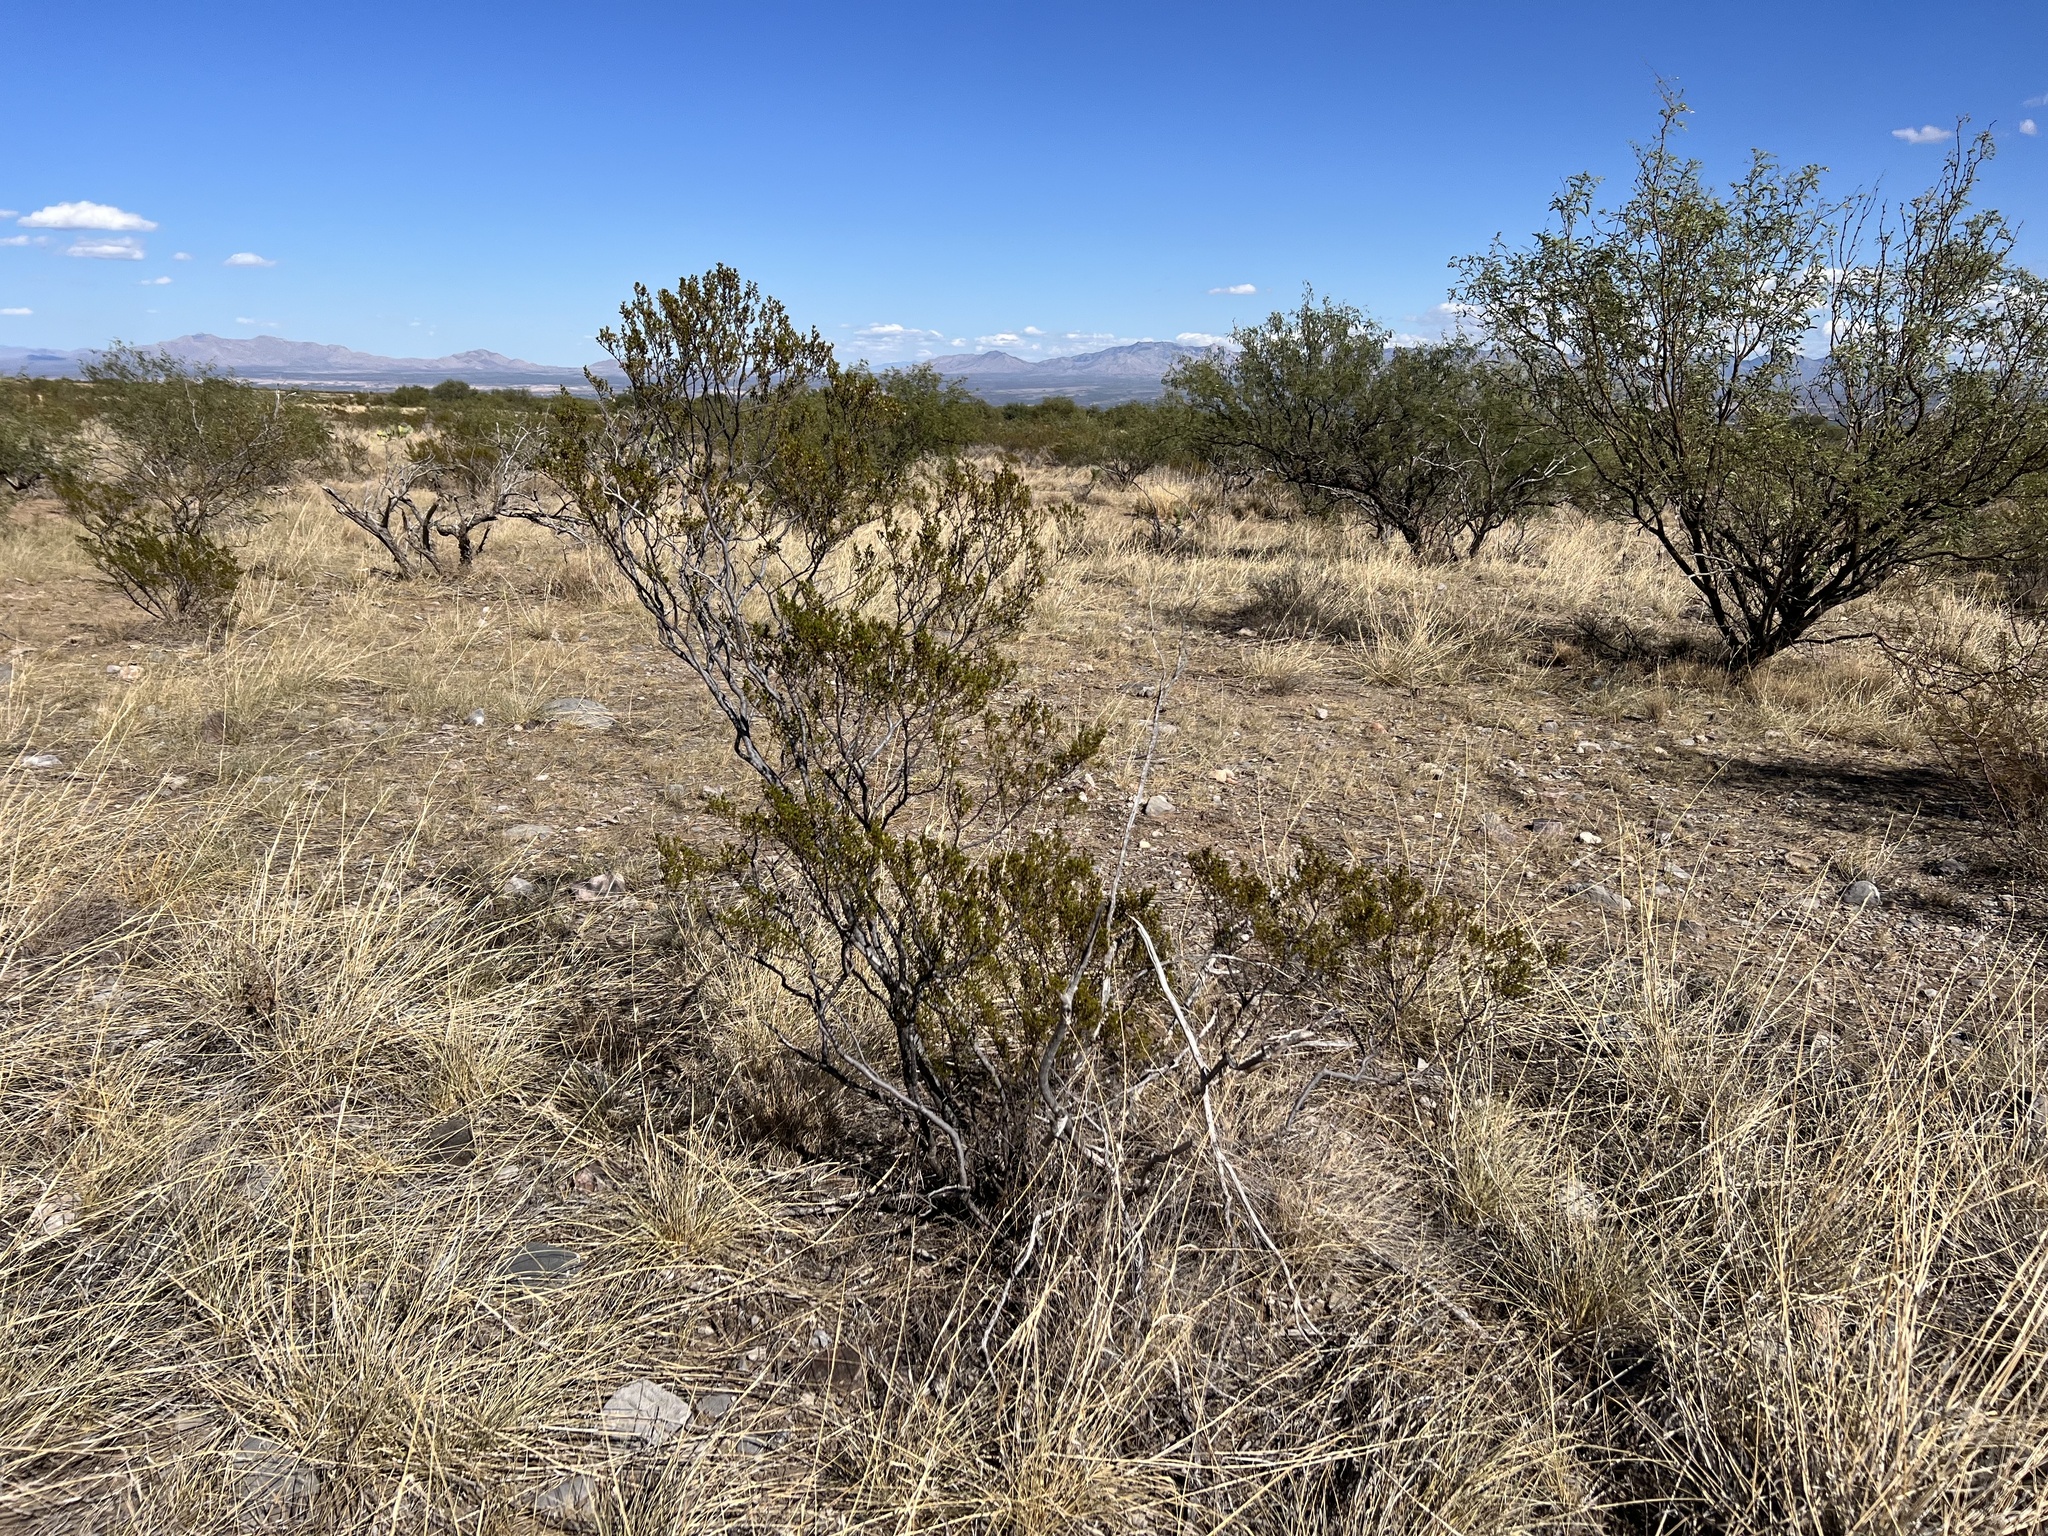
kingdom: Plantae
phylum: Tracheophyta
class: Magnoliopsida
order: Zygophyllales
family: Zygophyllaceae
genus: Larrea
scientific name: Larrea tridentata
